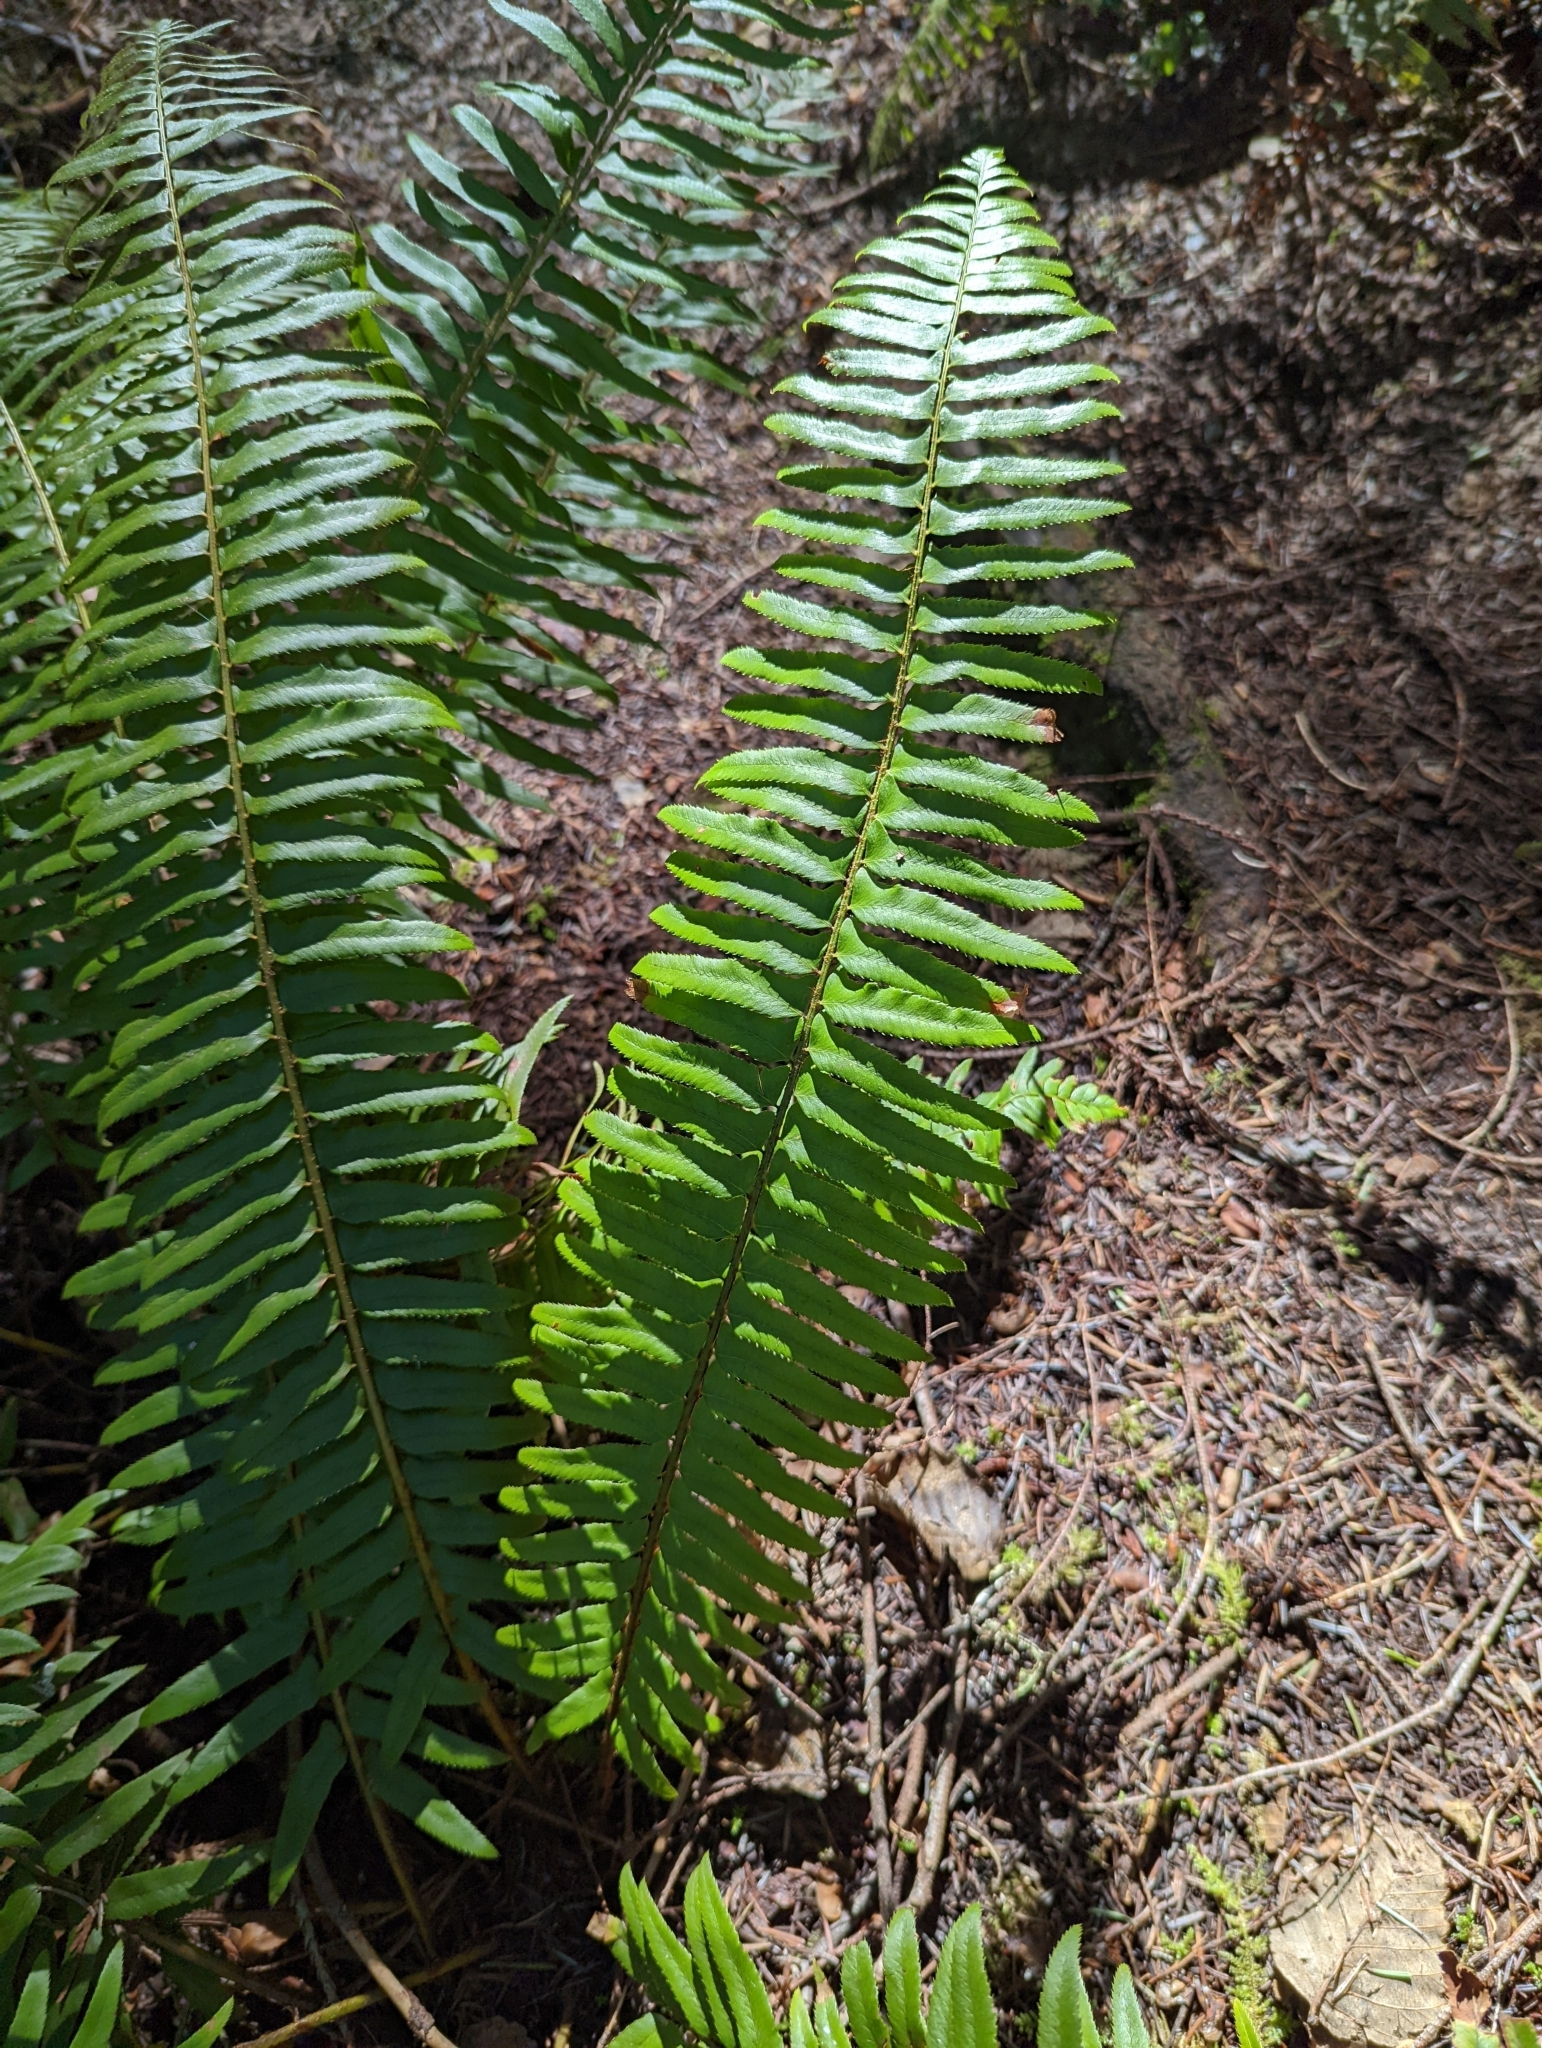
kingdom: Plantae
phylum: Tracheophyta
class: Polypodiopsida
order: Polypodiales
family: Dryopteridaceae
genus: Polystichum
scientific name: Polystichum munitum
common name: Western sword-fern
